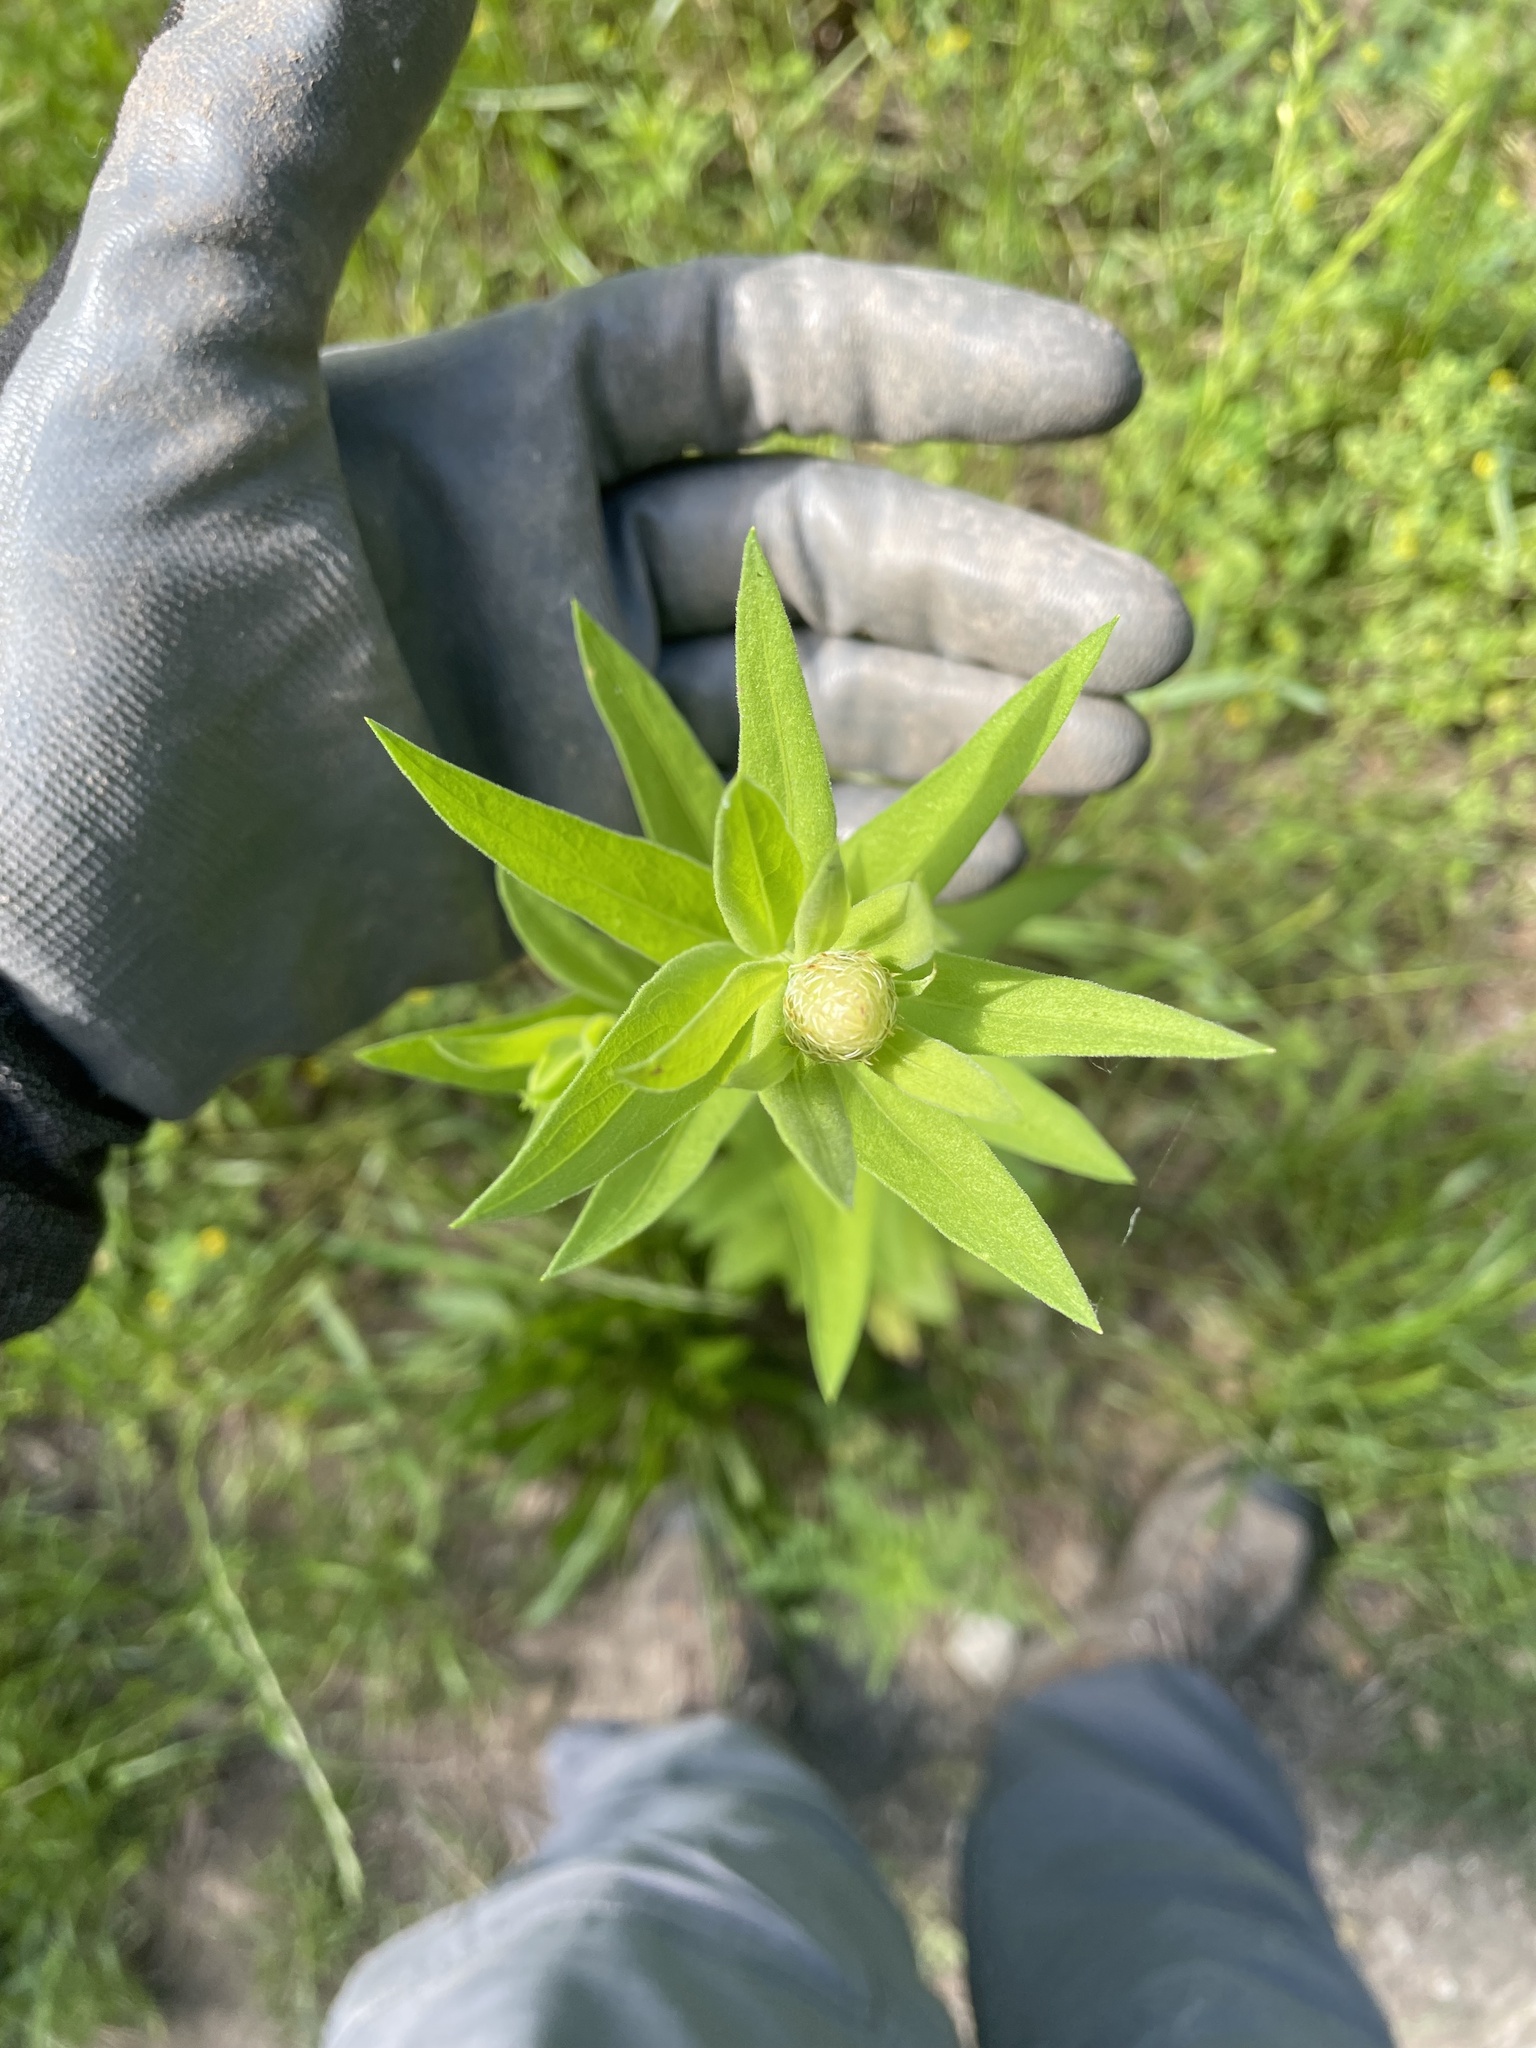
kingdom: Plantae
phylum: Tracheophyta
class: Magnoliopsida
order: Asterales
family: Asteraceae
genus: Plectocephalus
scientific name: Plectocephalus americanus
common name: American basket-flower
